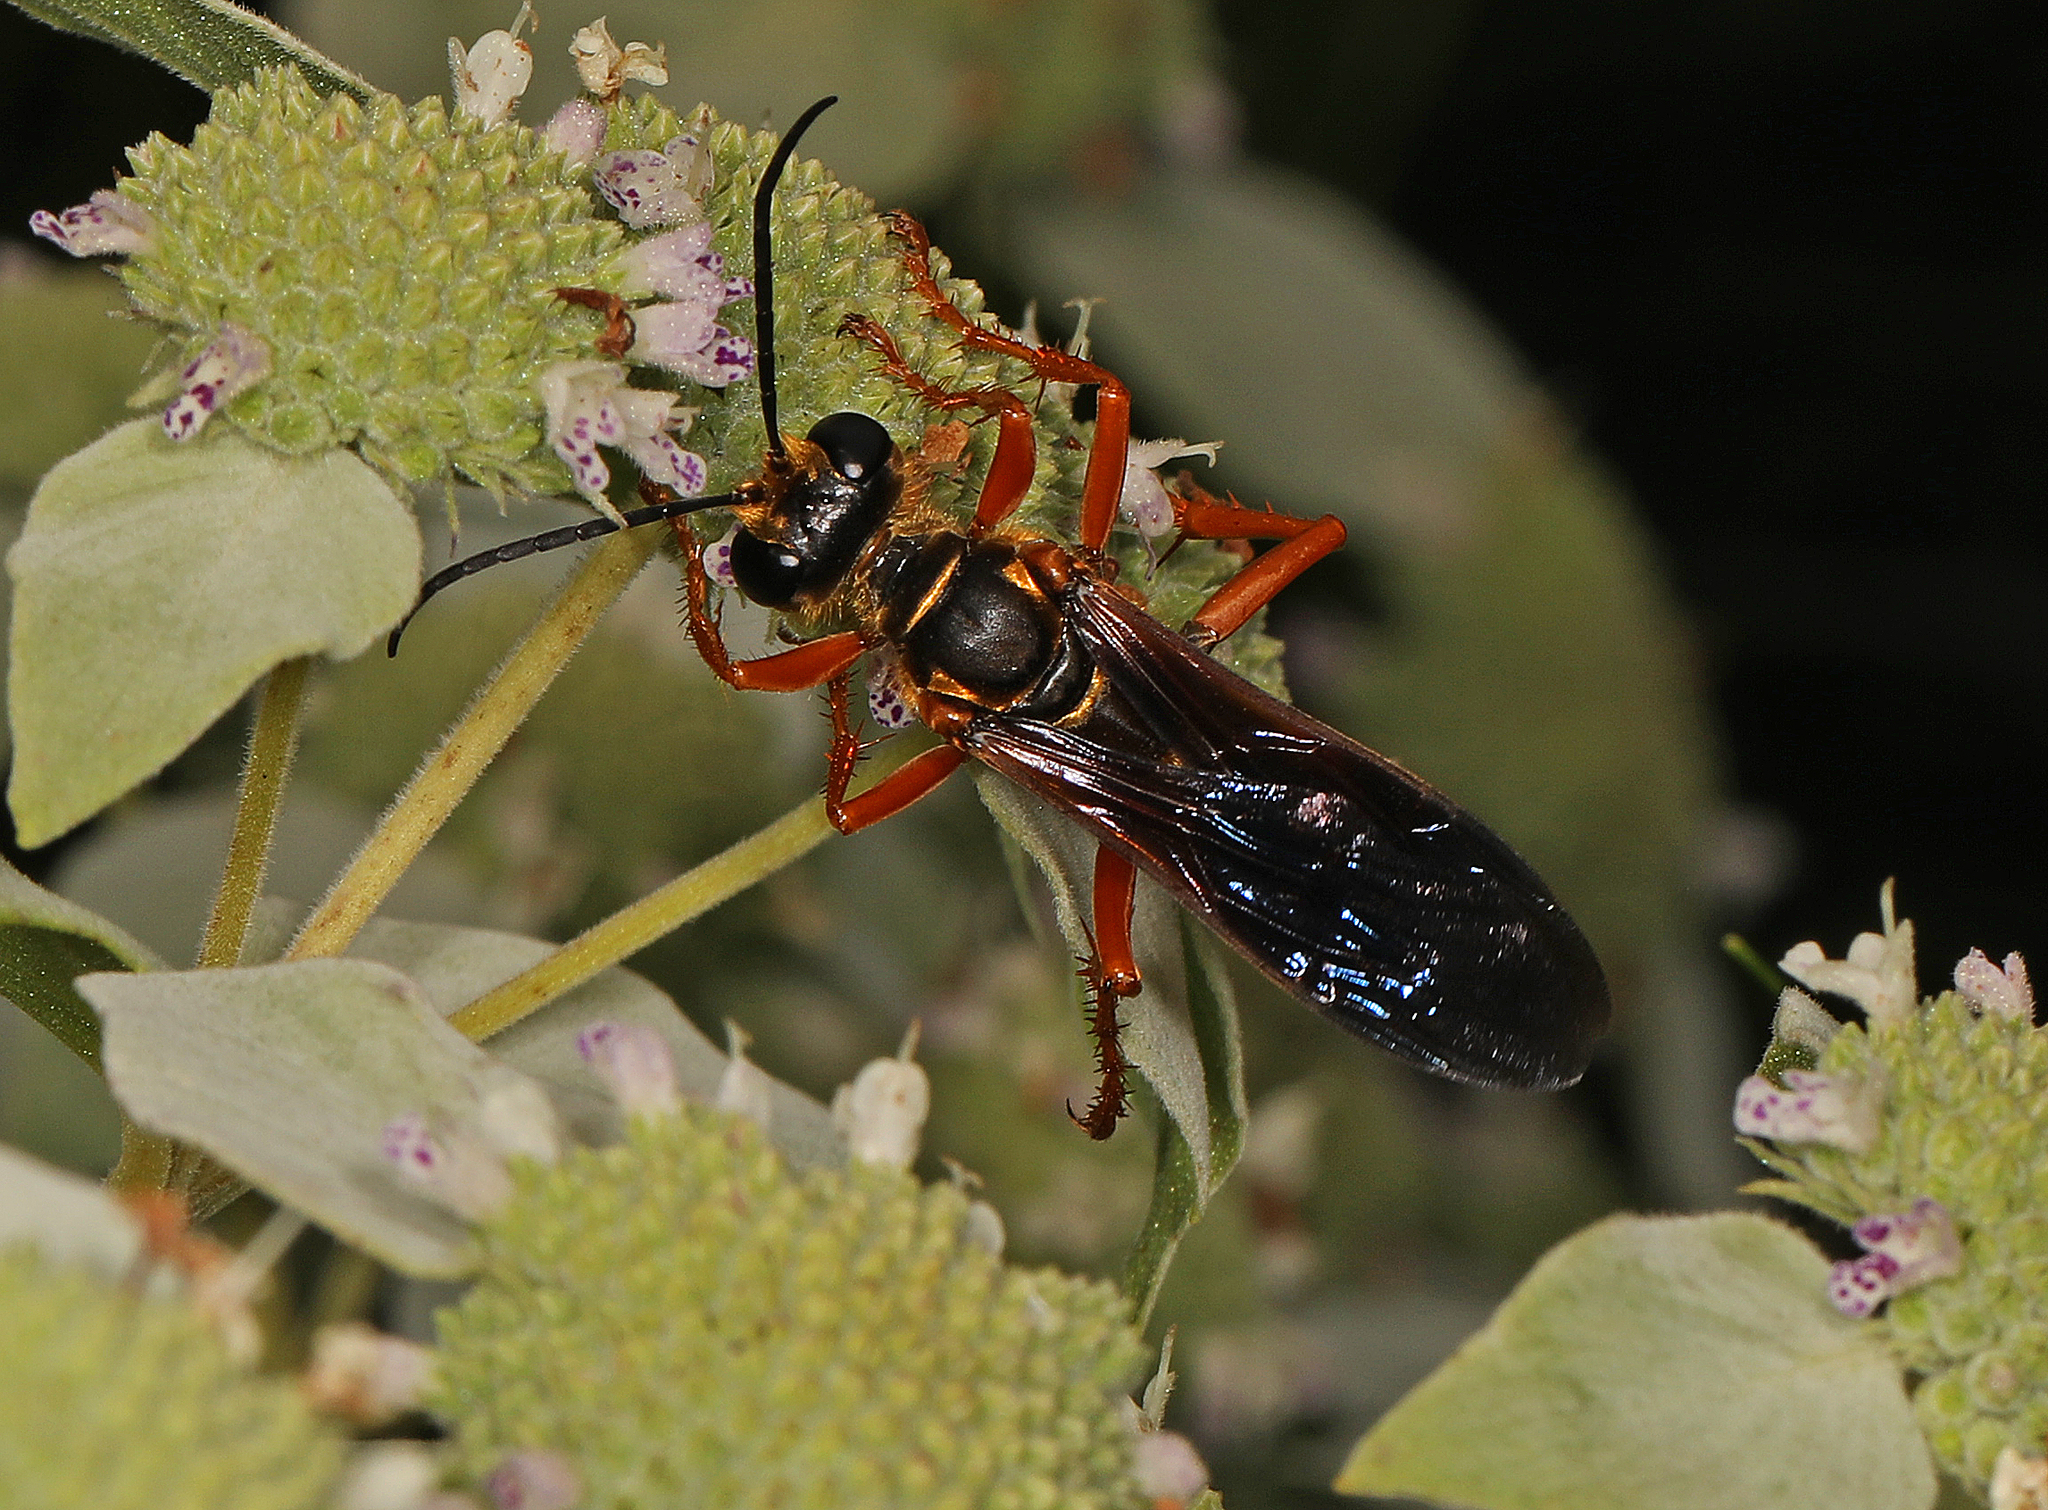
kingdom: Animalia
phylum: Arthropoda
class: Insecta
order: Hymenoptera
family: Sphecidae
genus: Sphex
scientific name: Sphex ichneumoneus
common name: Great golden digger wasp
